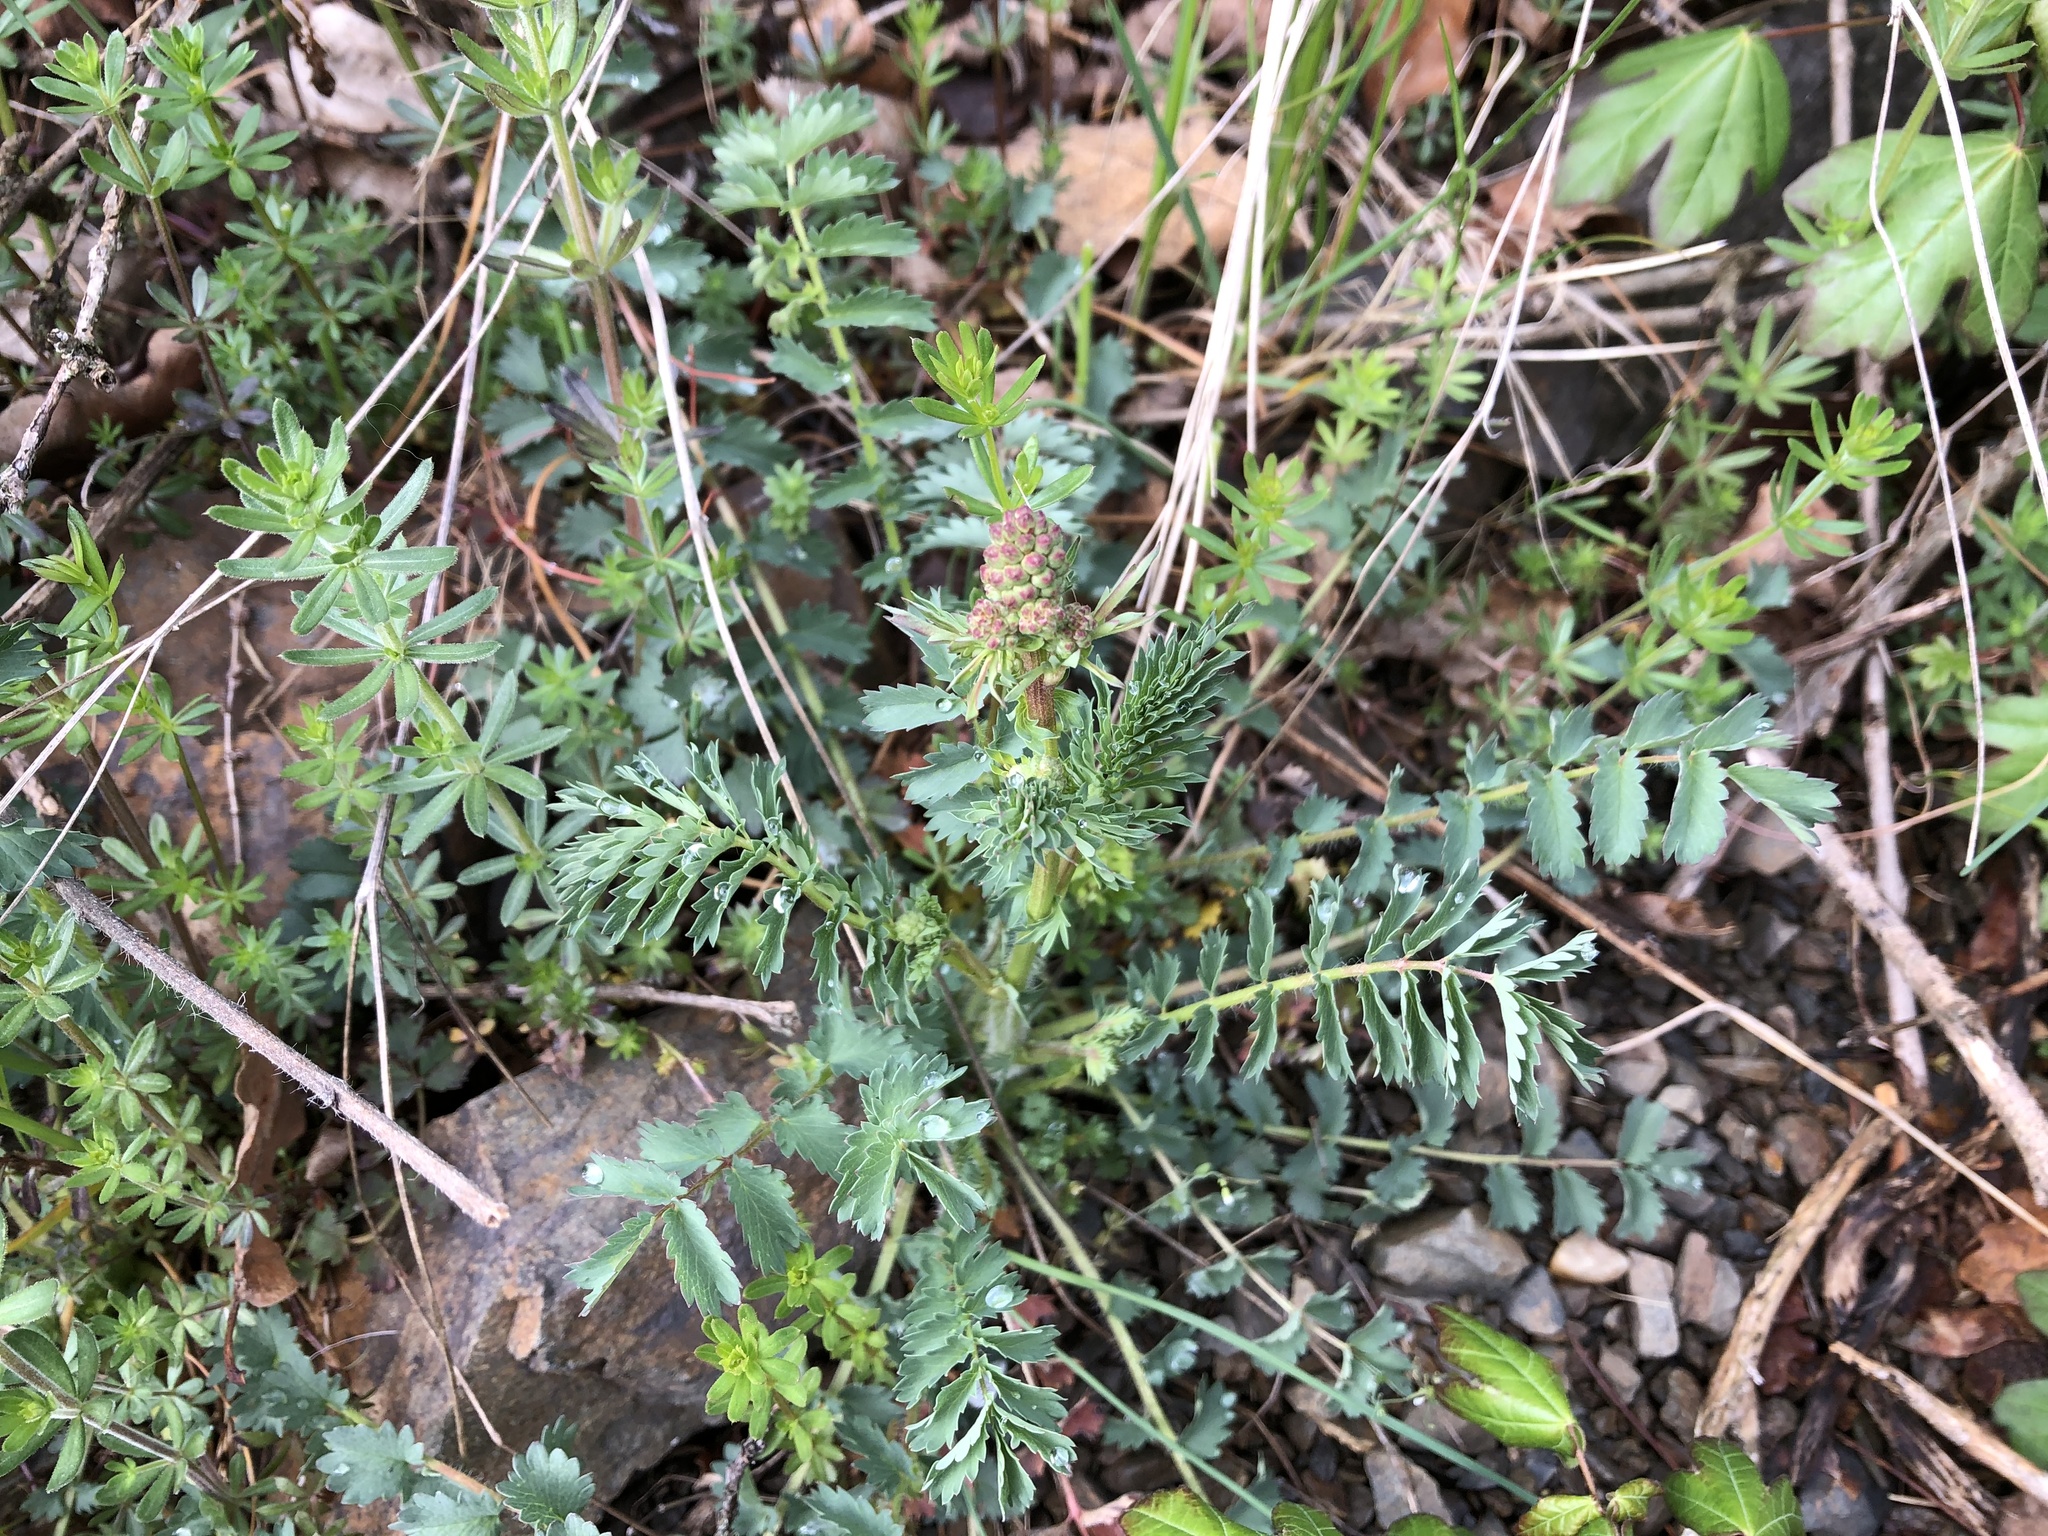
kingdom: Plantae
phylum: Tracheophyta
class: Magnoliopsida
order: Rosales
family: Rosaceae
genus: Poterium
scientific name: Poterium sanguisorba
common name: Salad burnet
